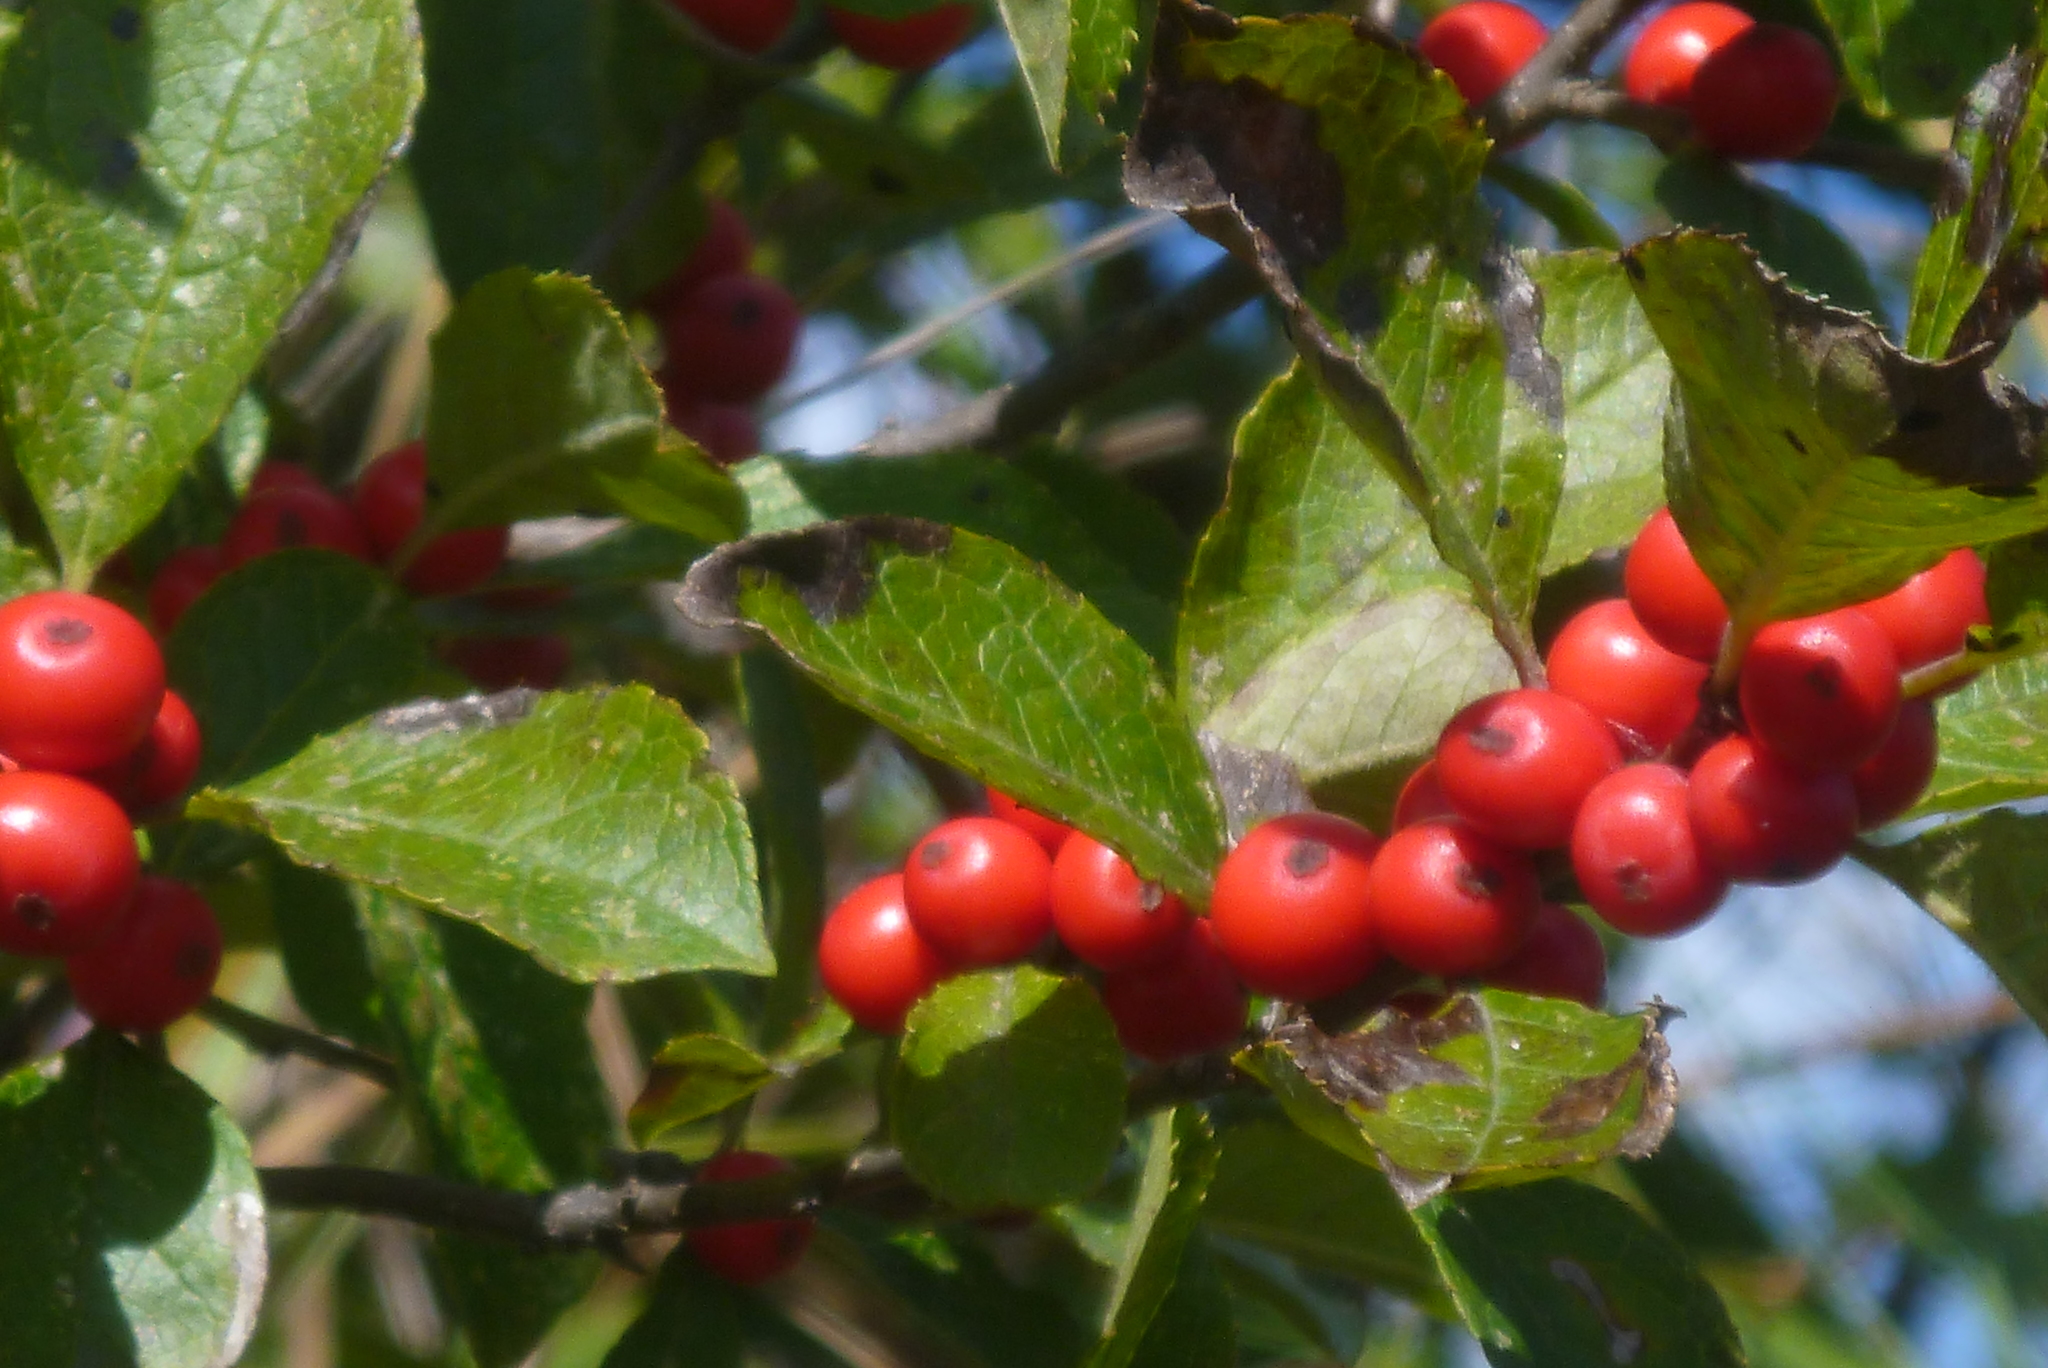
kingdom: Plantae
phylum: Tracheophyta
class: Magnoliopsida
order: Aquifoliales
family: Aquifoliaceae
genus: Ilex
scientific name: Ilex verticillata
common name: Virginia winterberry
